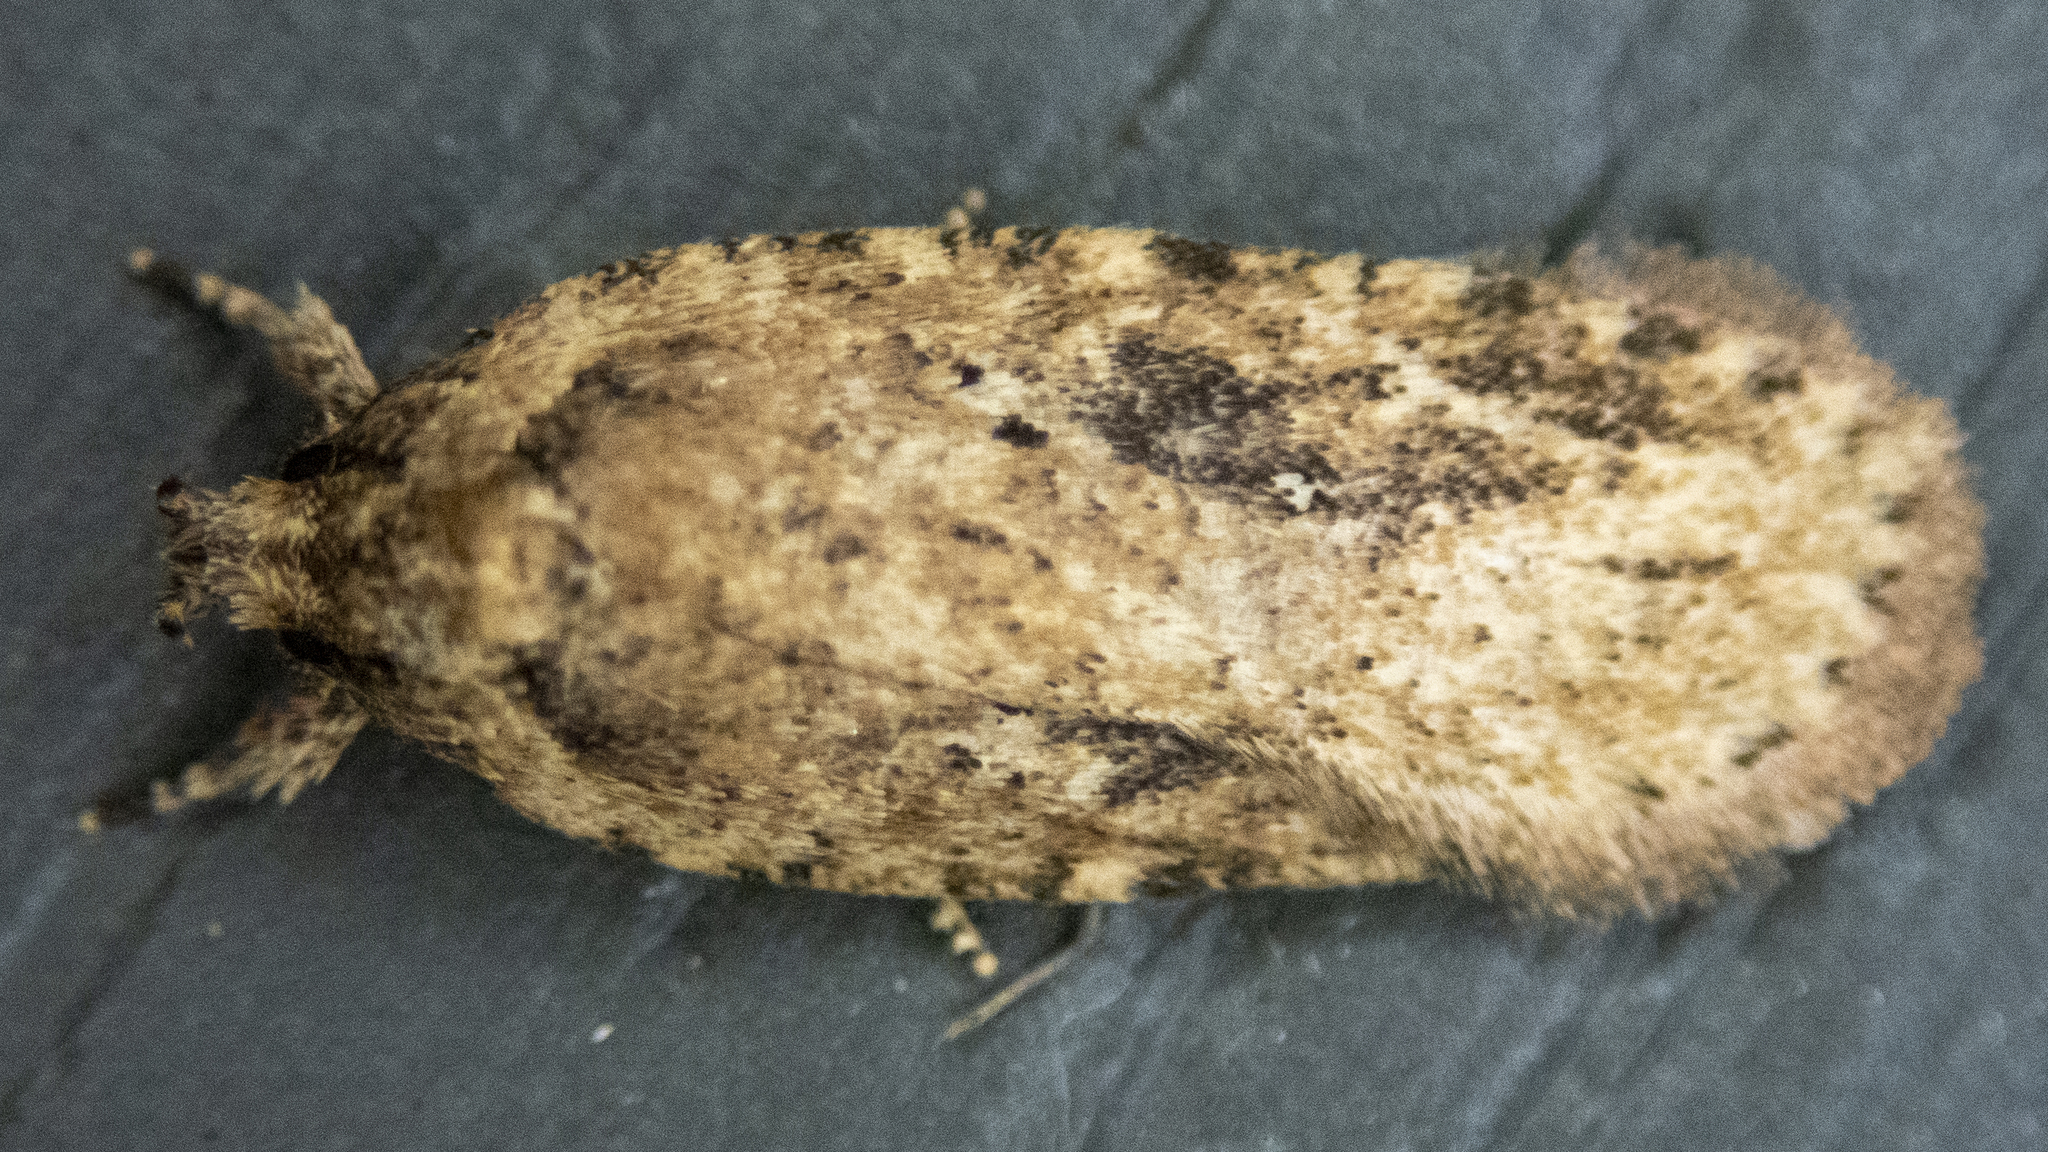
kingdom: Animalia
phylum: Arthropoda
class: Insecta
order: Lepidoptera
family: Depressariidae
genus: Agonopterix
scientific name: Agonopterix pulvipennella
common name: Goldenrod leafffolder
